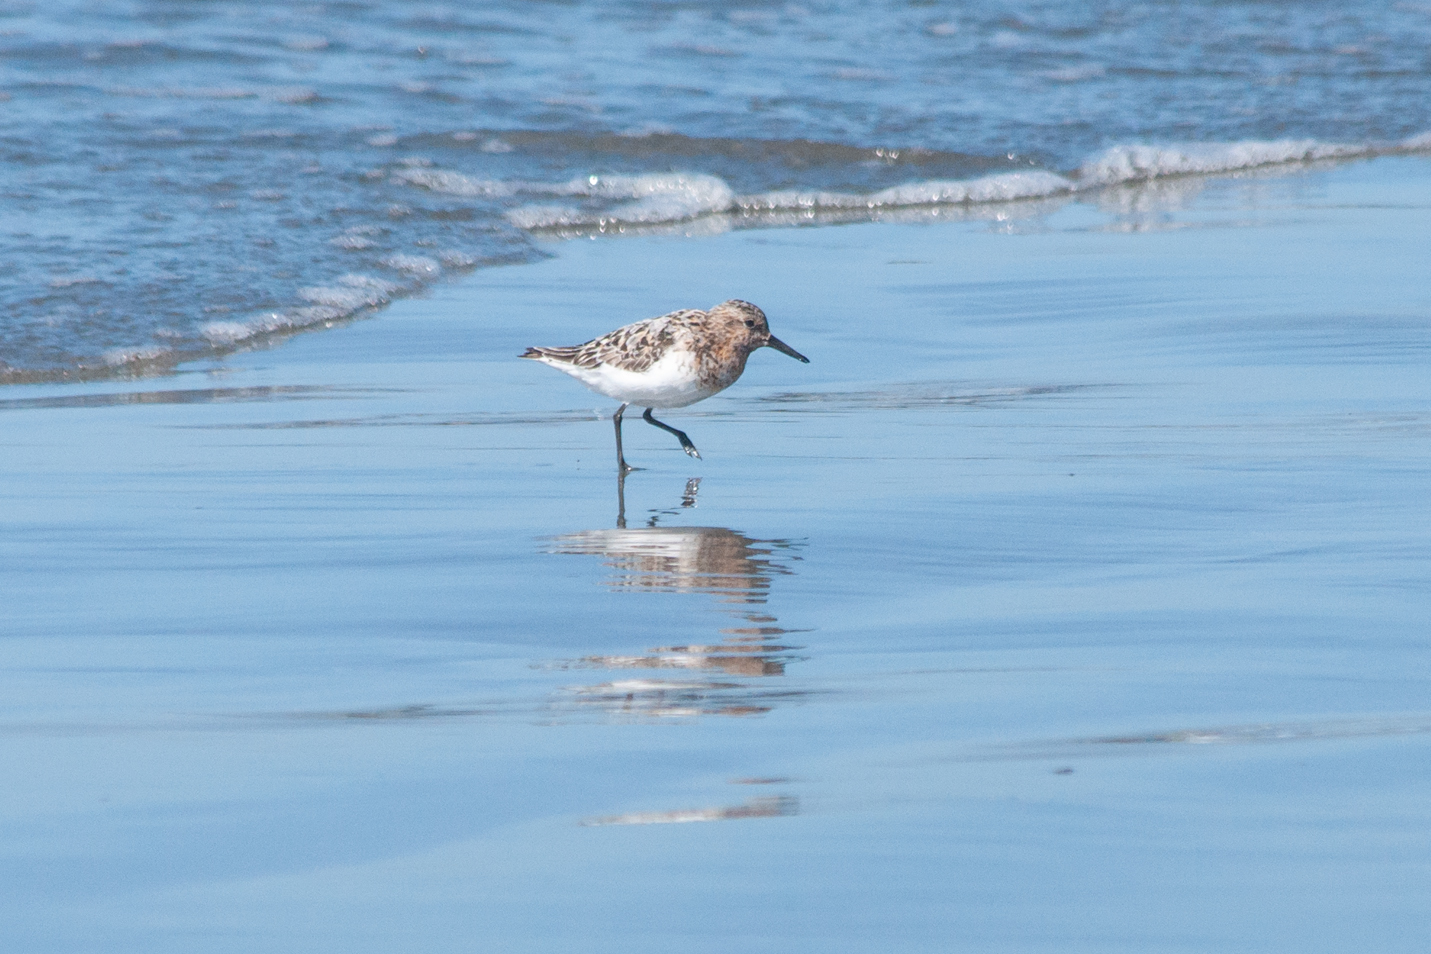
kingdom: Animalia
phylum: Chordata
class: Aves
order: Charadriiformes
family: Scolopacidae
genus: Calidris
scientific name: Calidris alba
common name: Sanderling
